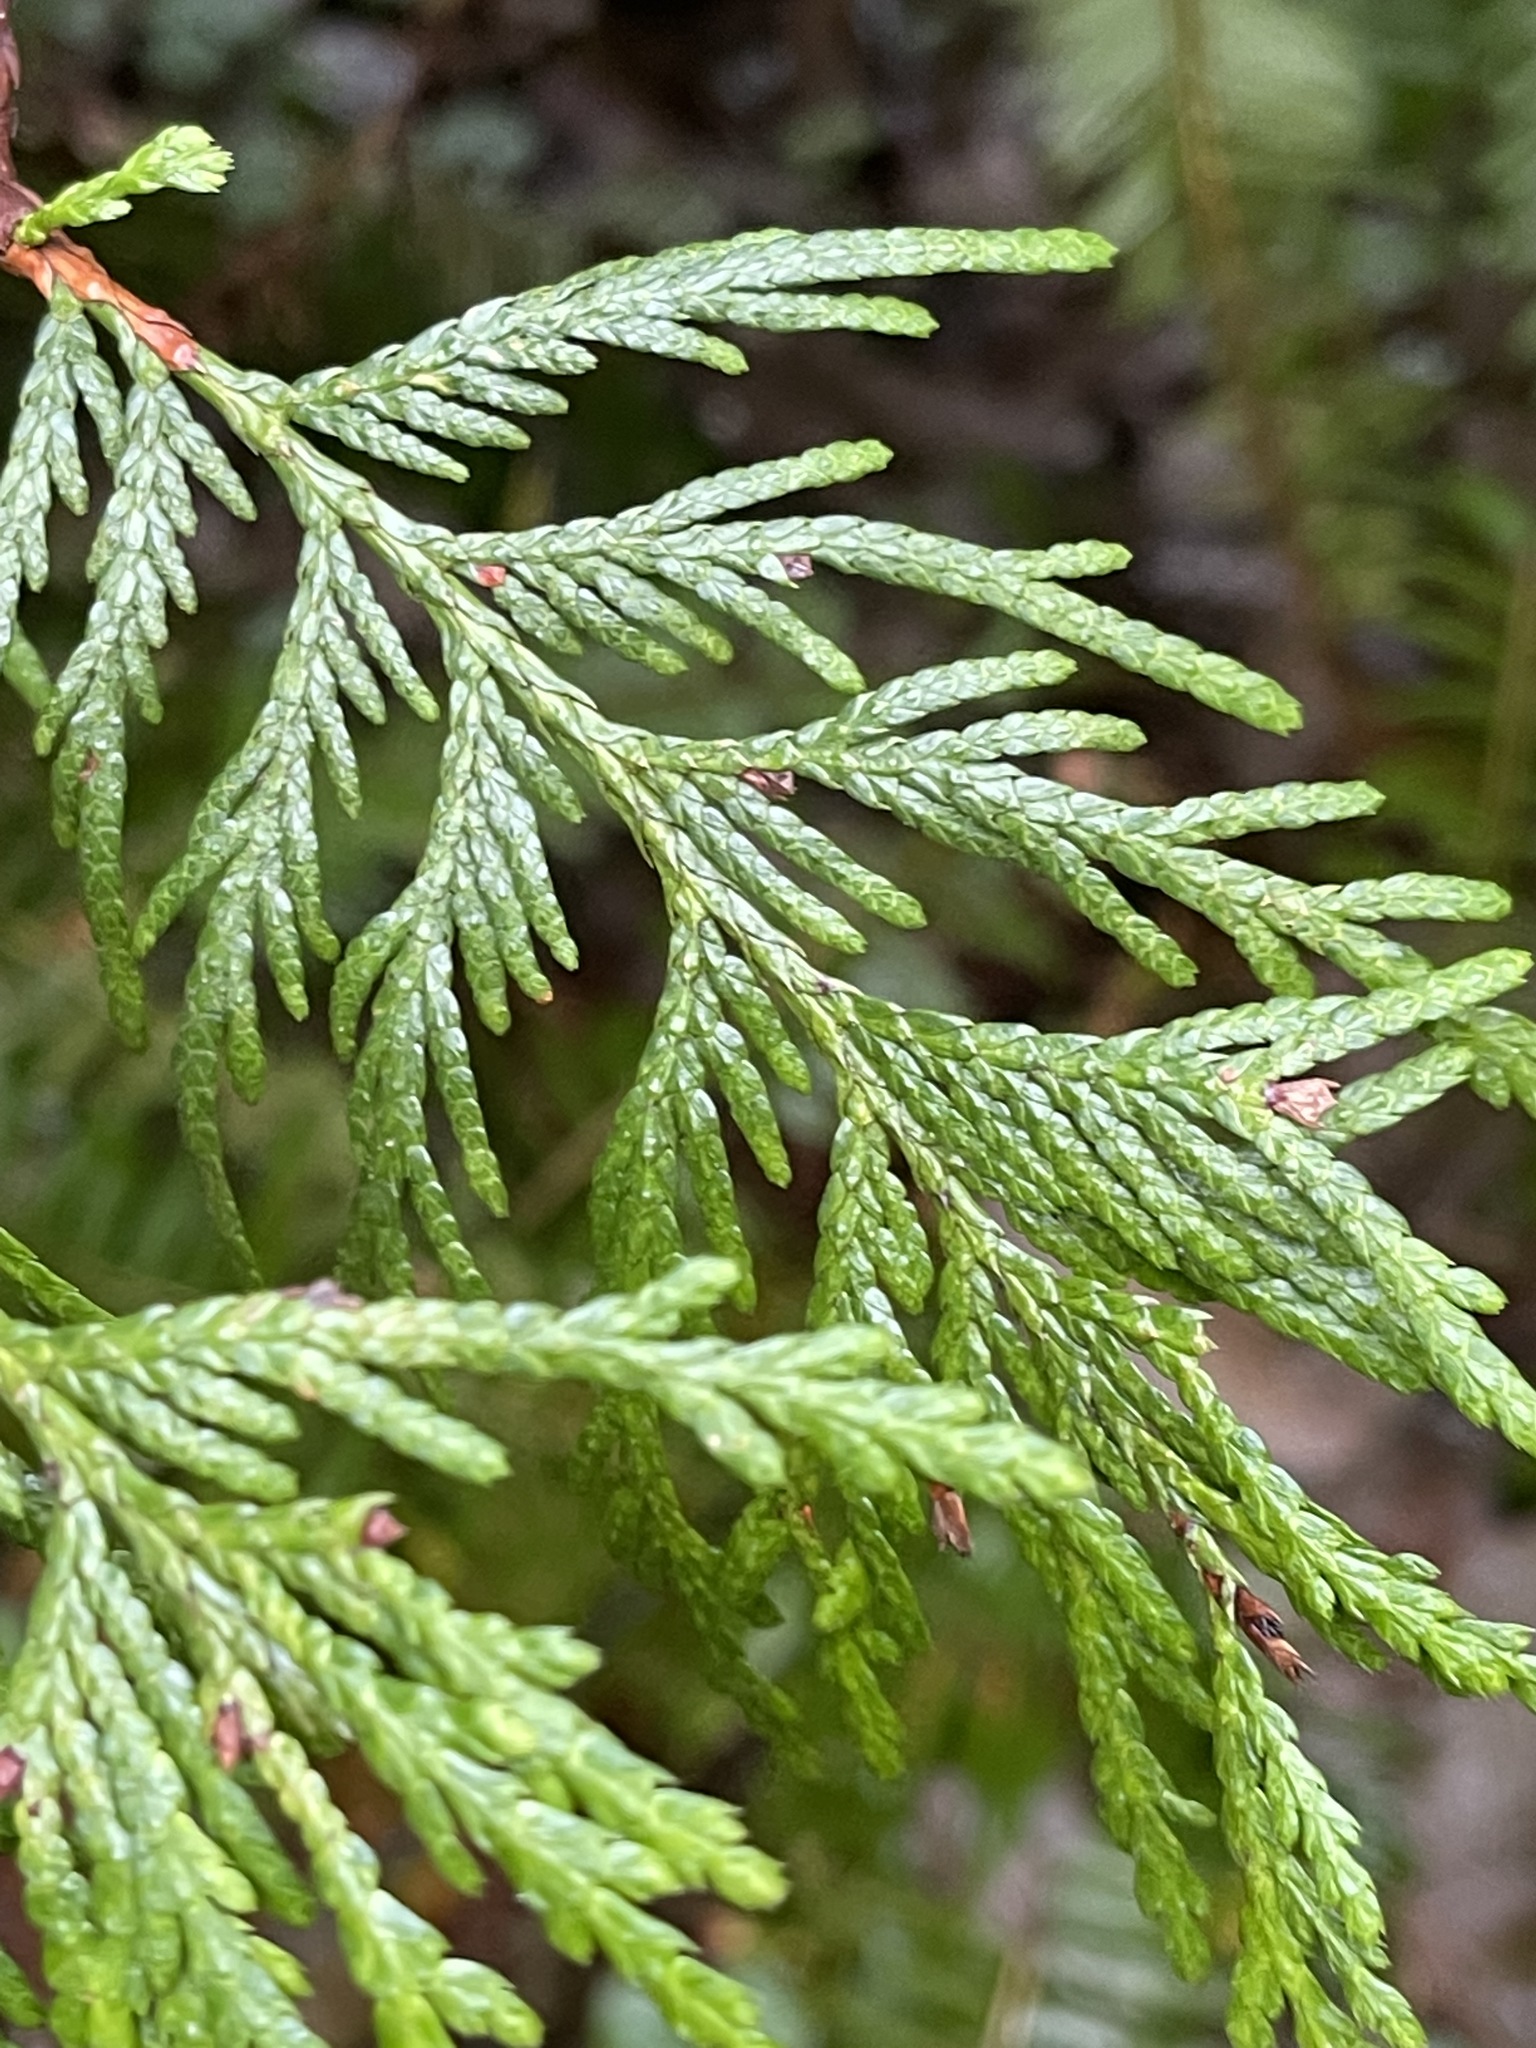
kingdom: Plantae
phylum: Tracheophyta
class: Pinopsida
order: Pinales
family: Cupressaceae
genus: Thuja
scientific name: Thuja plicata
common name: Western red-cedar
